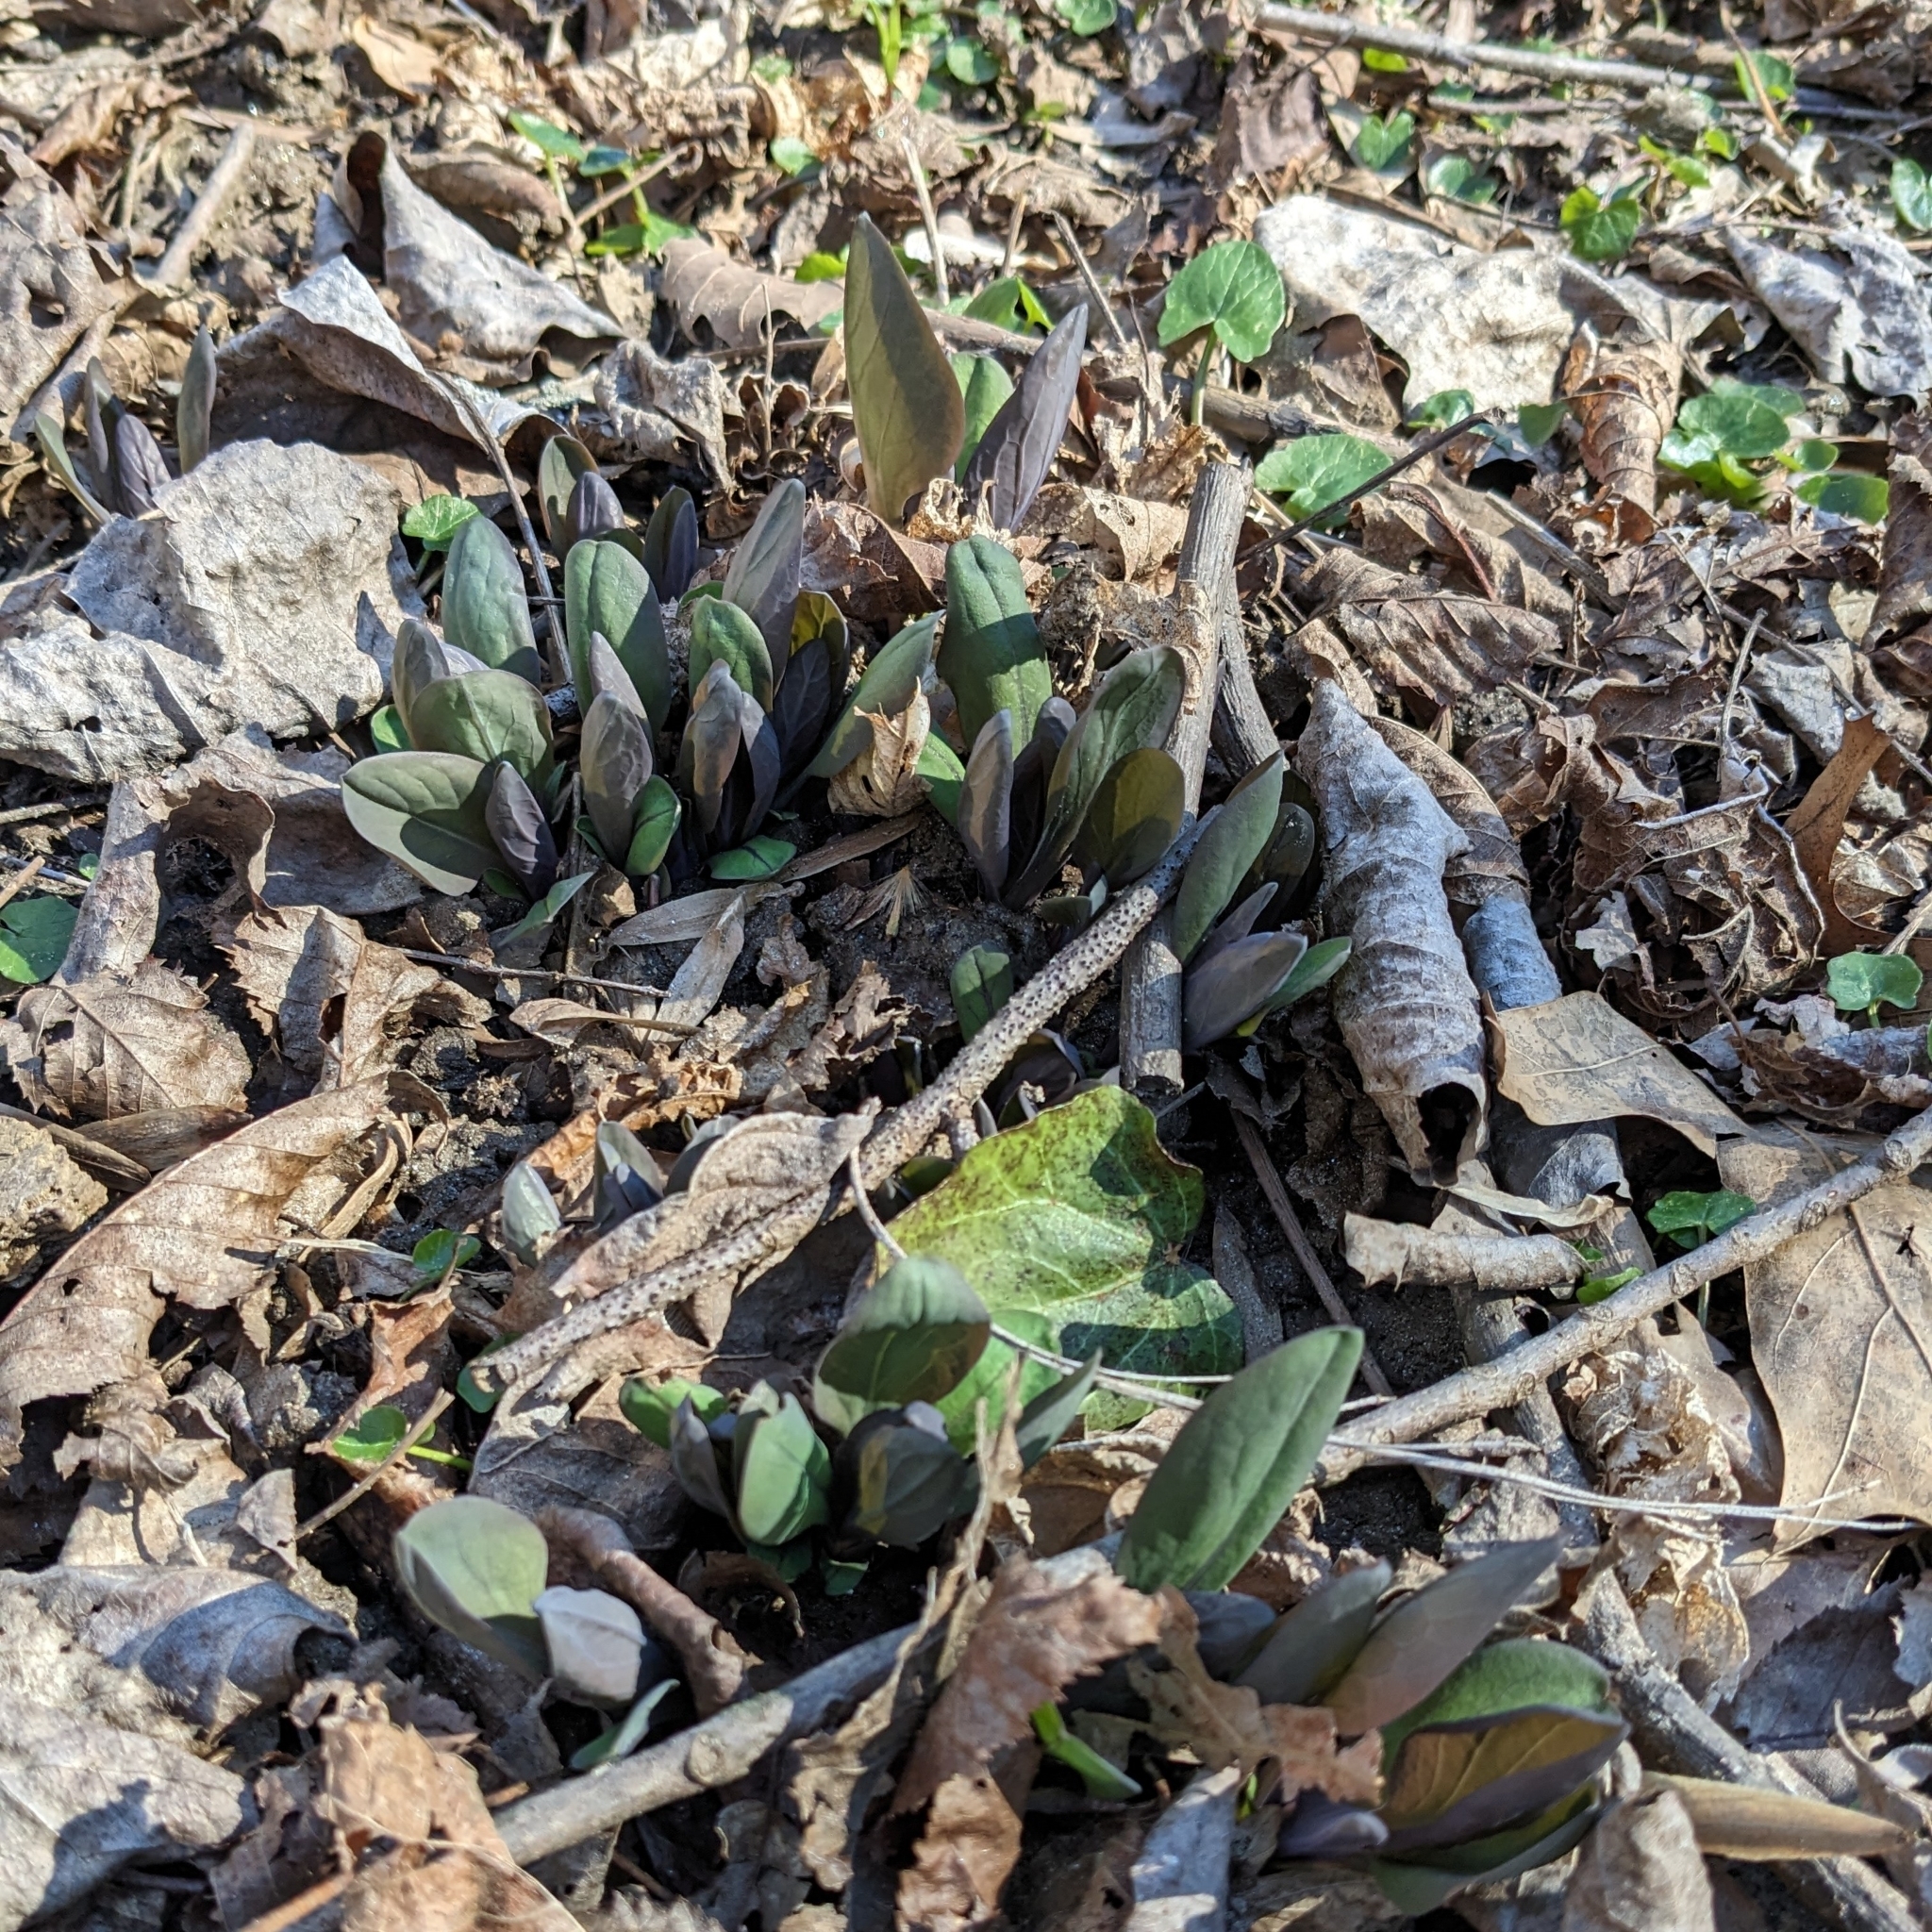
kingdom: Plantae
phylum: Tracheophyta
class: Magnoliopsida
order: Boraginales
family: Boraginaceae
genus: Mertensia
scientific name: Mertensia virginica
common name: Virginia bluebells
